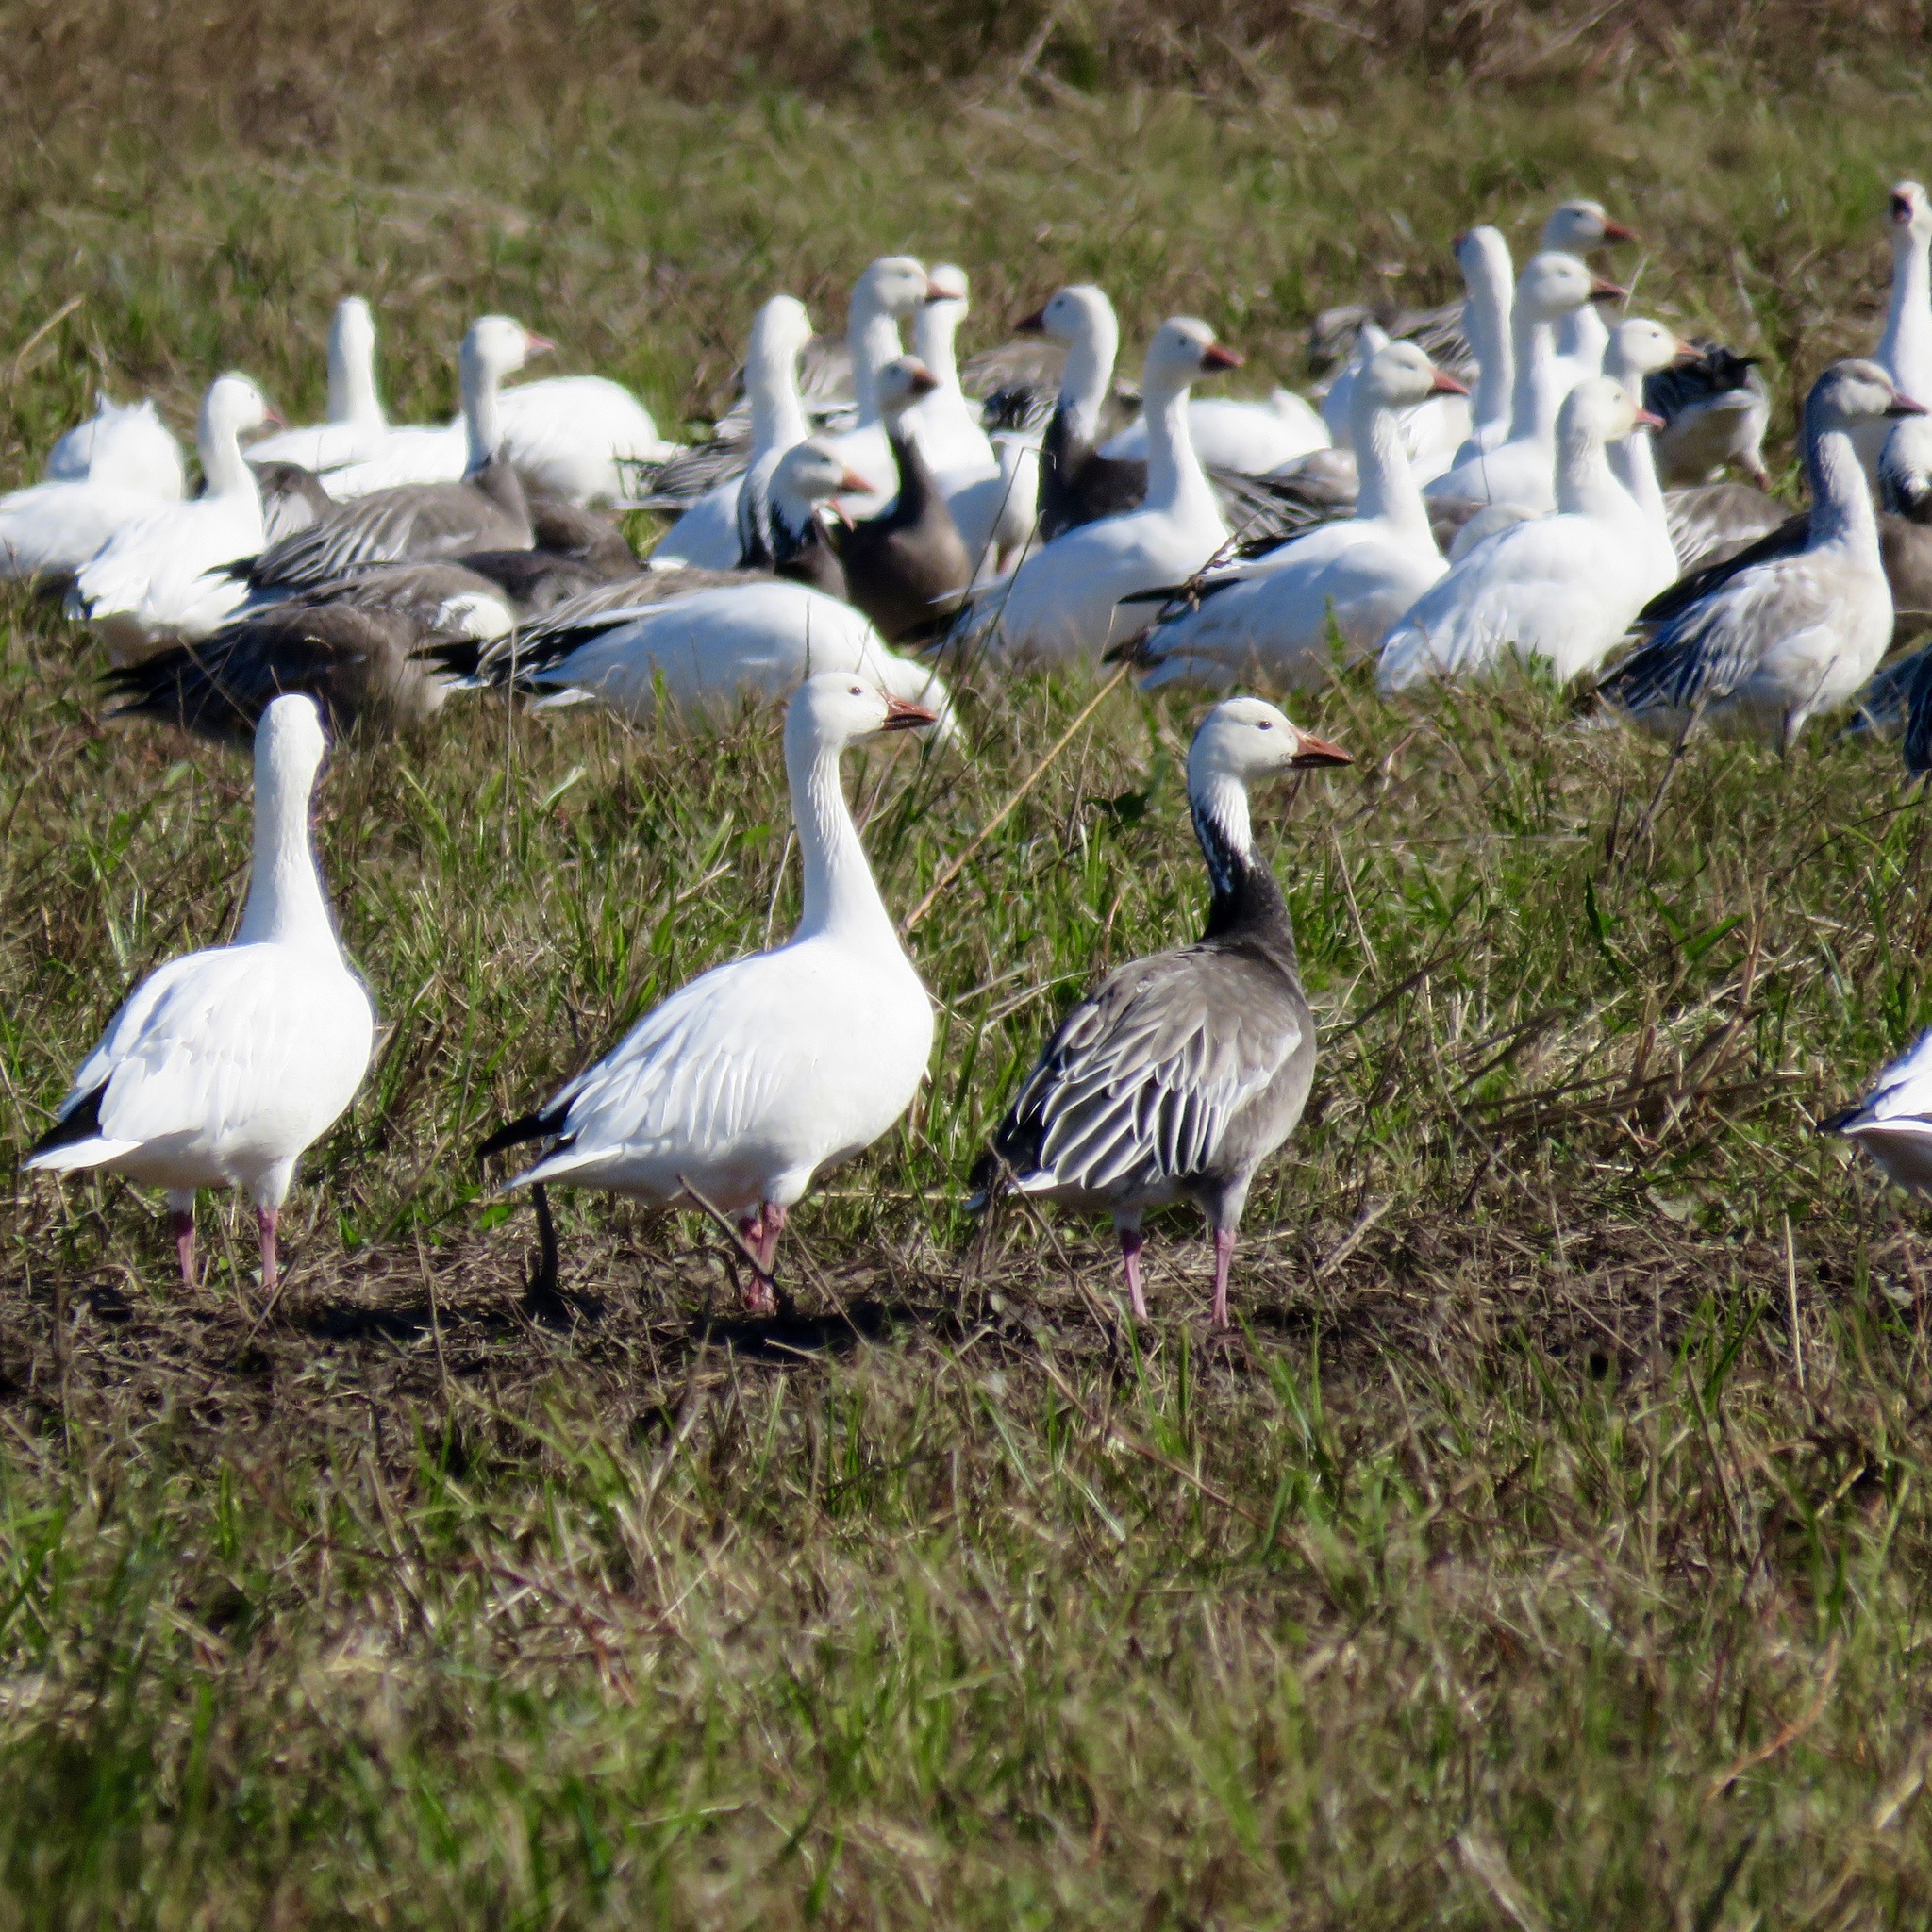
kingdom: Animalia
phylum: Chordata
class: Aves
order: Anseriformes
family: Anatidae
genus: Anser
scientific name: Anser caerulescens
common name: Snow goose
